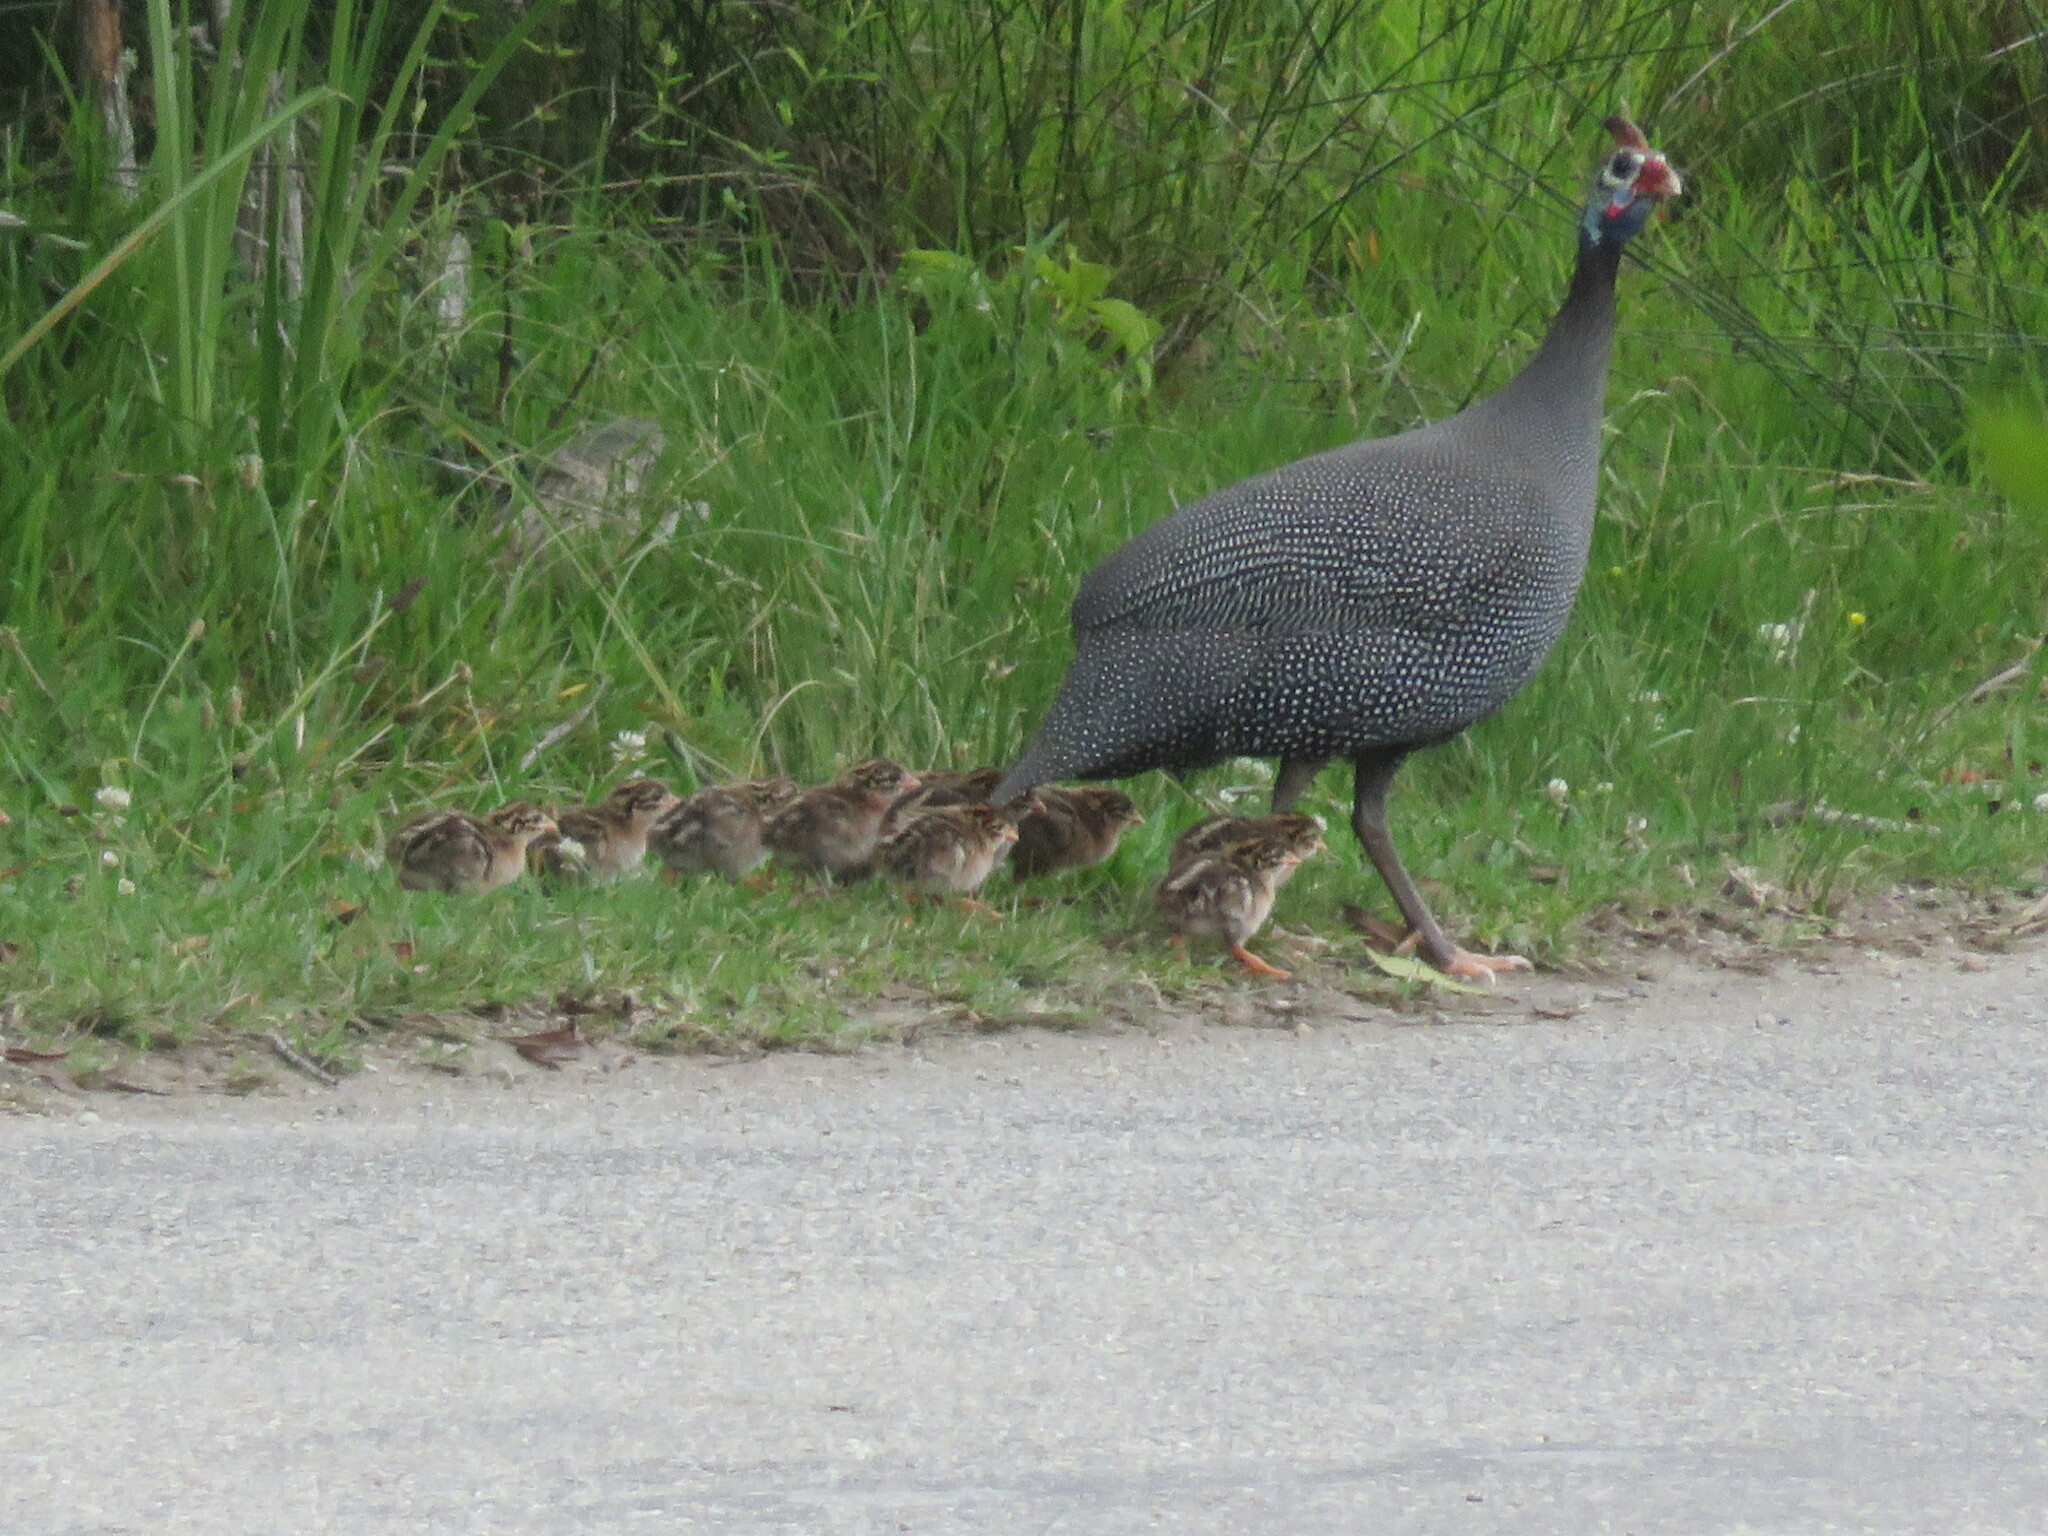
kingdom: Animalia
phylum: Chordata
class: Aves
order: Galliformes
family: Numididae
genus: Numida
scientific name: Numida meleagris
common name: Helmeted guineafowl
